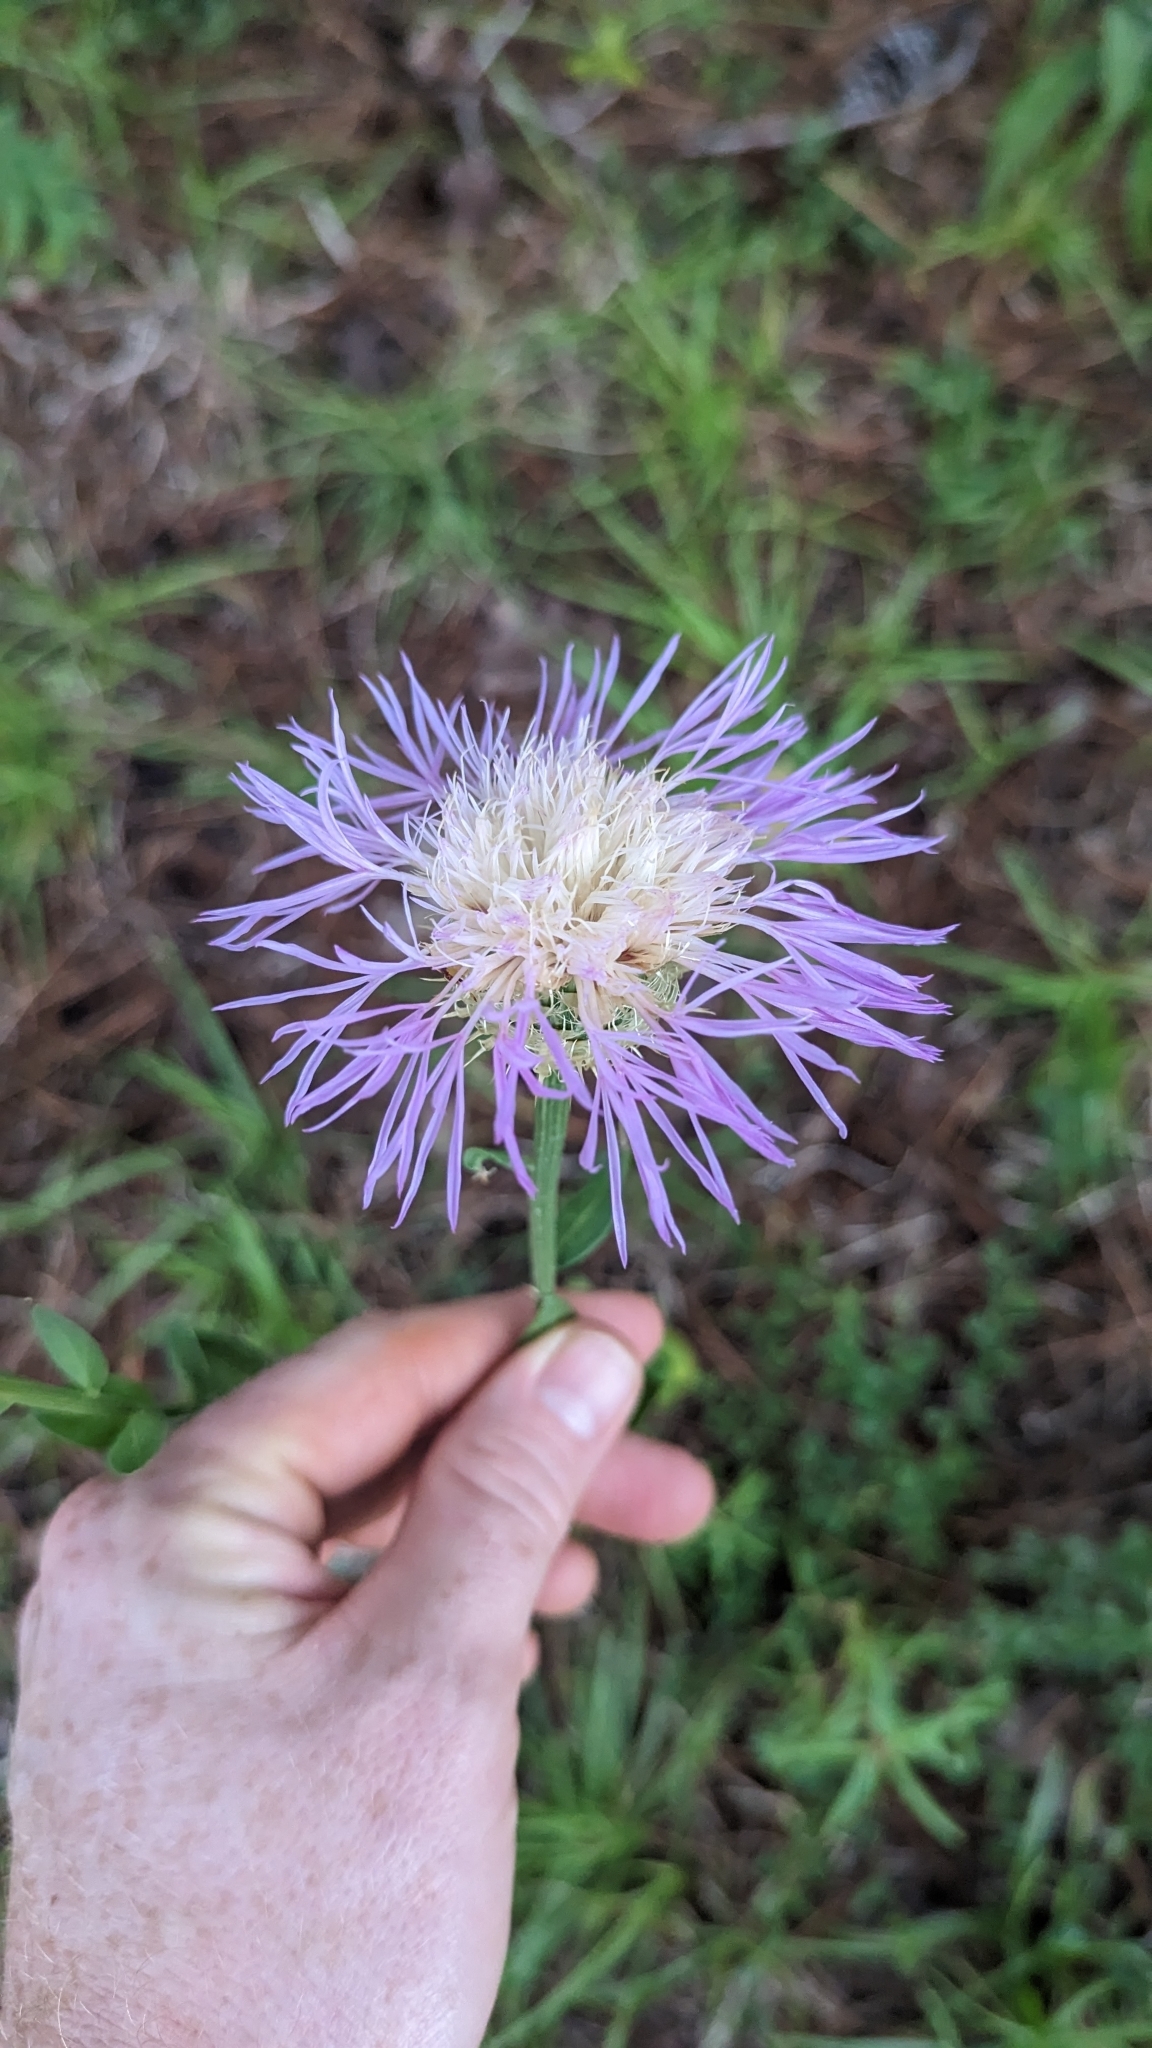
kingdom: Plantae
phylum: Tracheophyta
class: Magnoliopsida
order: Asterales
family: Asteraceae
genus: Plectocephalus
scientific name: Plectocephalus americanus
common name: American basket-flower
